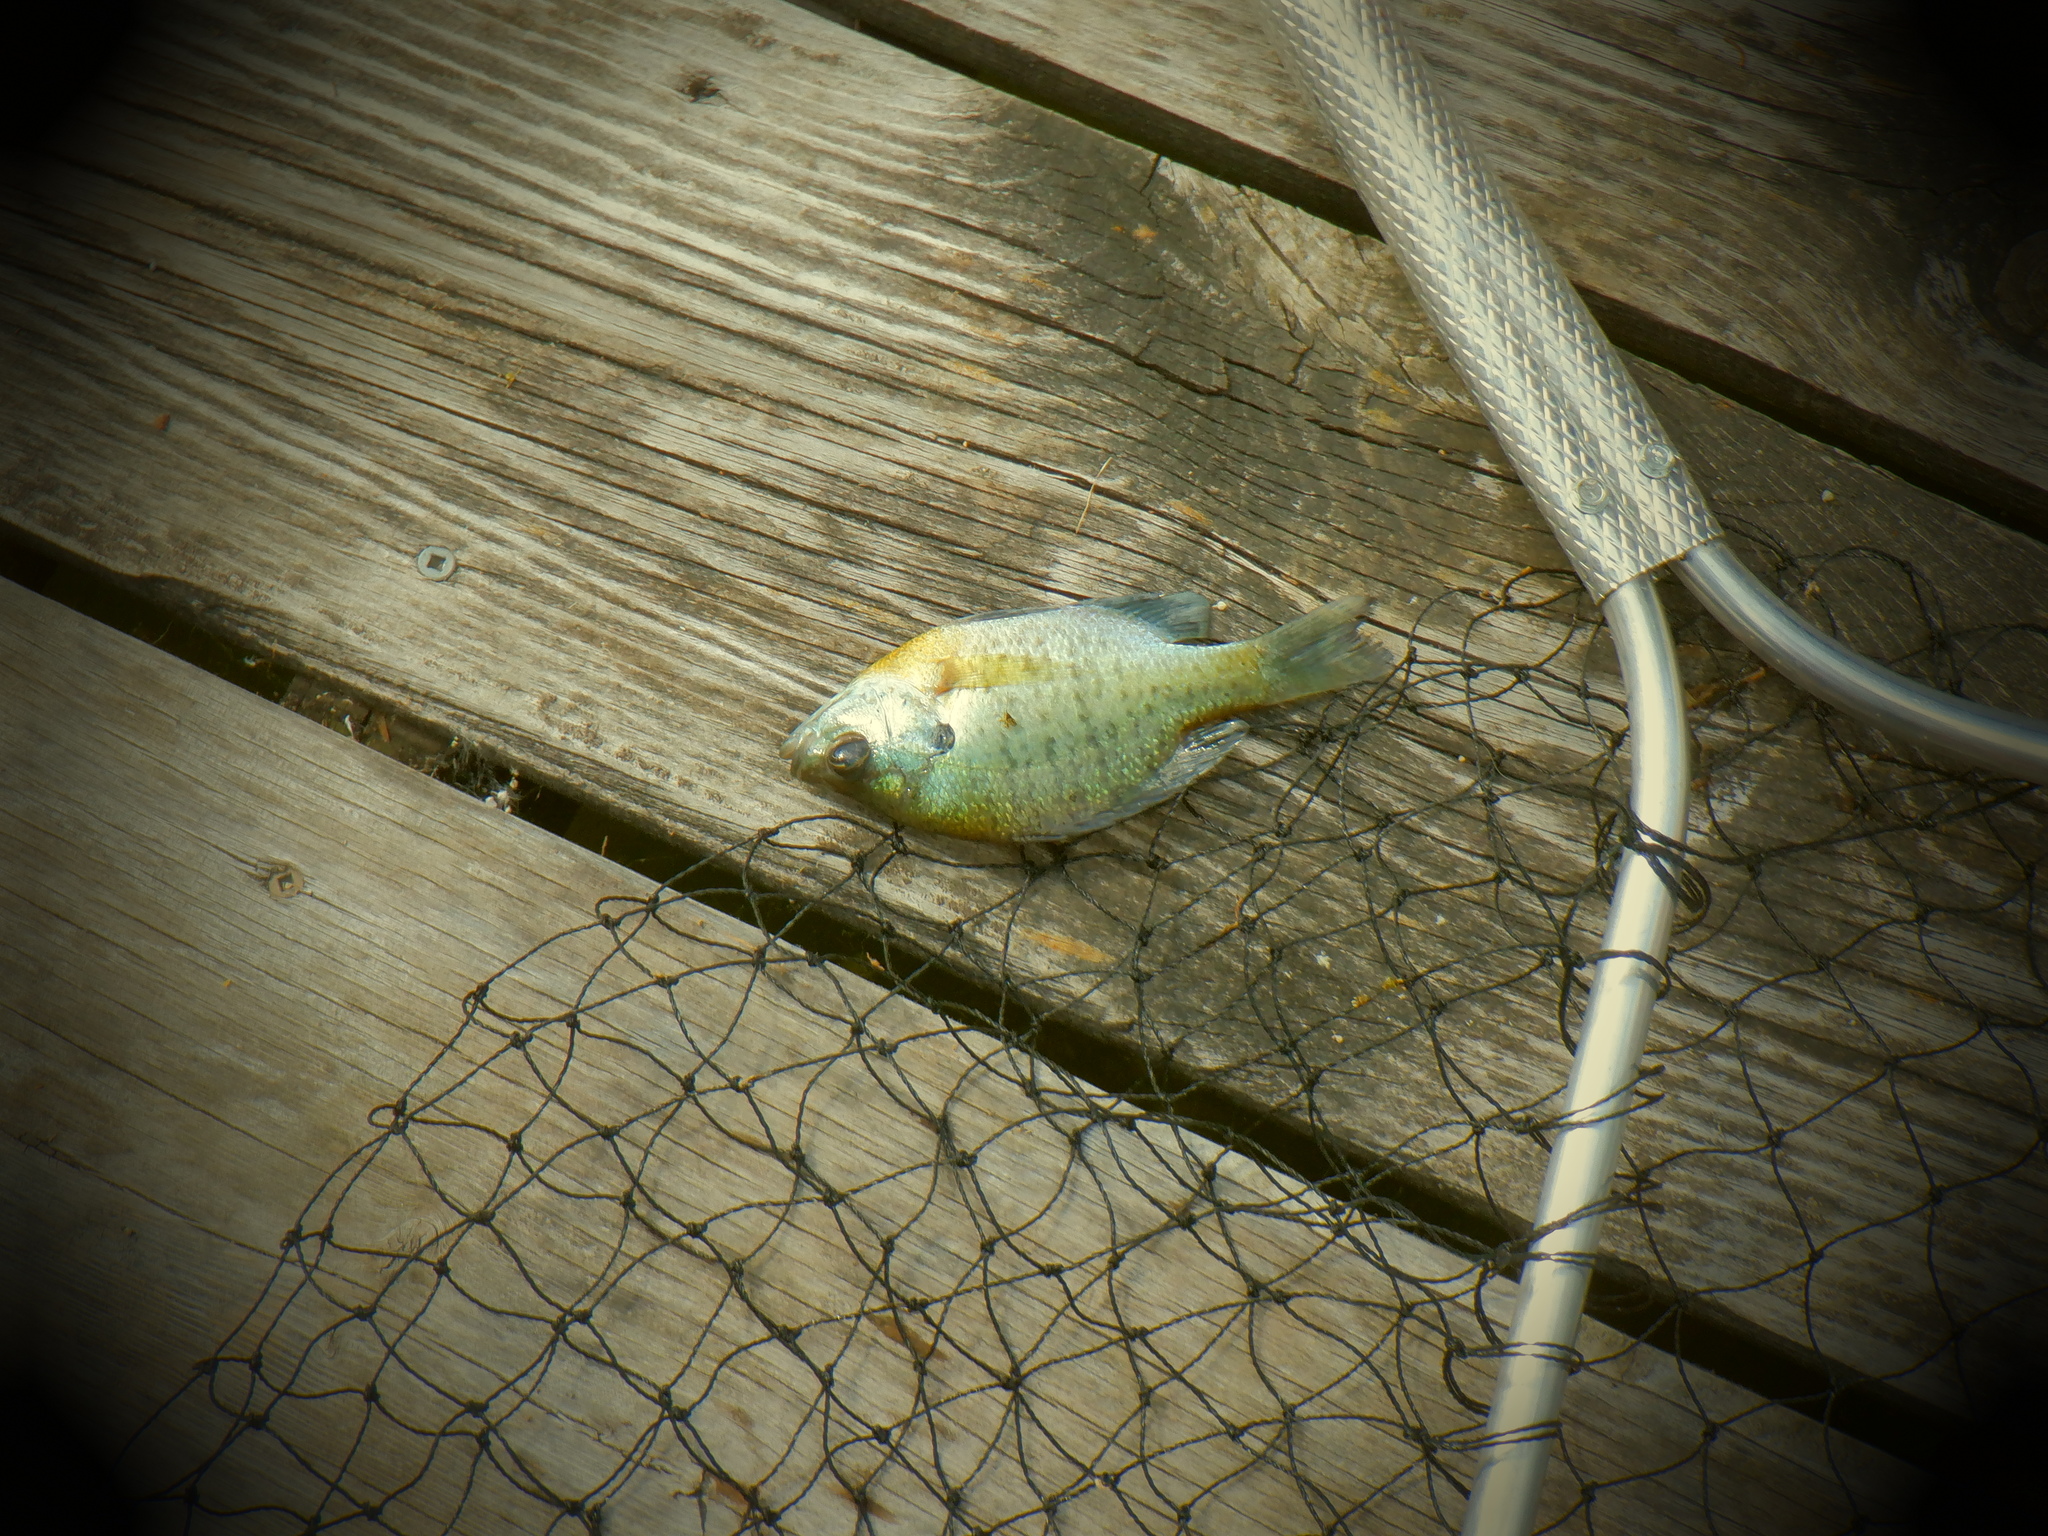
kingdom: Animalia
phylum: Chordata
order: Perciformes
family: Centrarchidae
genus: Lepomis
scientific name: Lepomis macrochirus
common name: Bluegill
